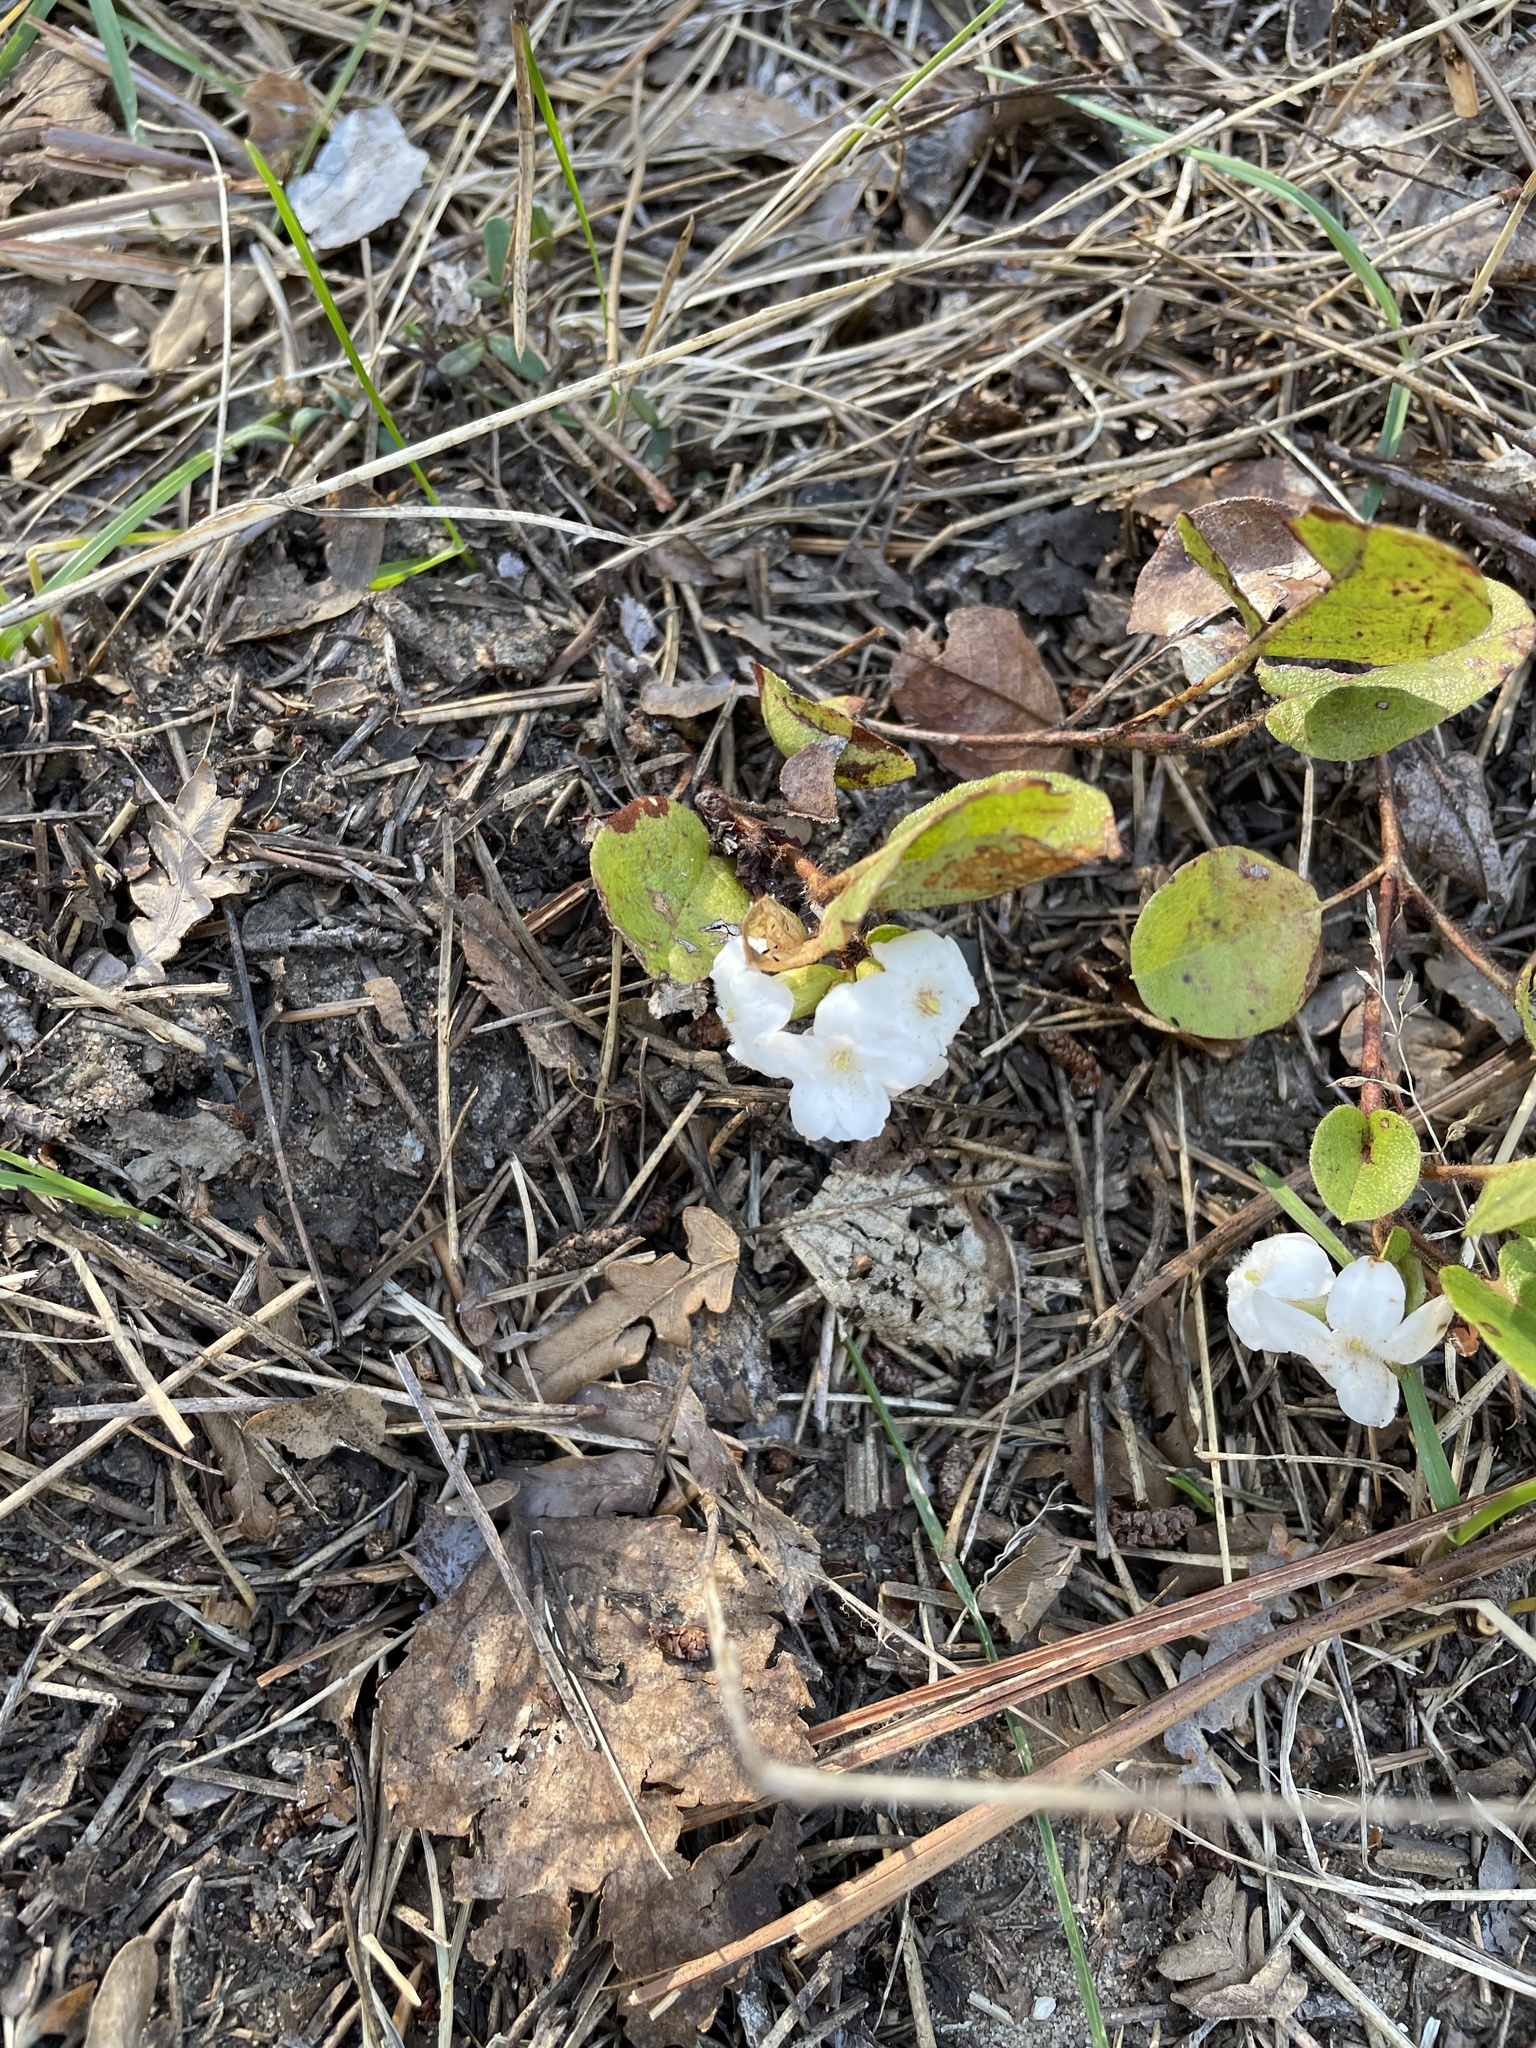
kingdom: Plantae
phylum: Tracheophyta
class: Magnoliopsida
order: Ericales
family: Ericaceae
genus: Epigaea
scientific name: Epigaea repens
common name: Gravelroot
